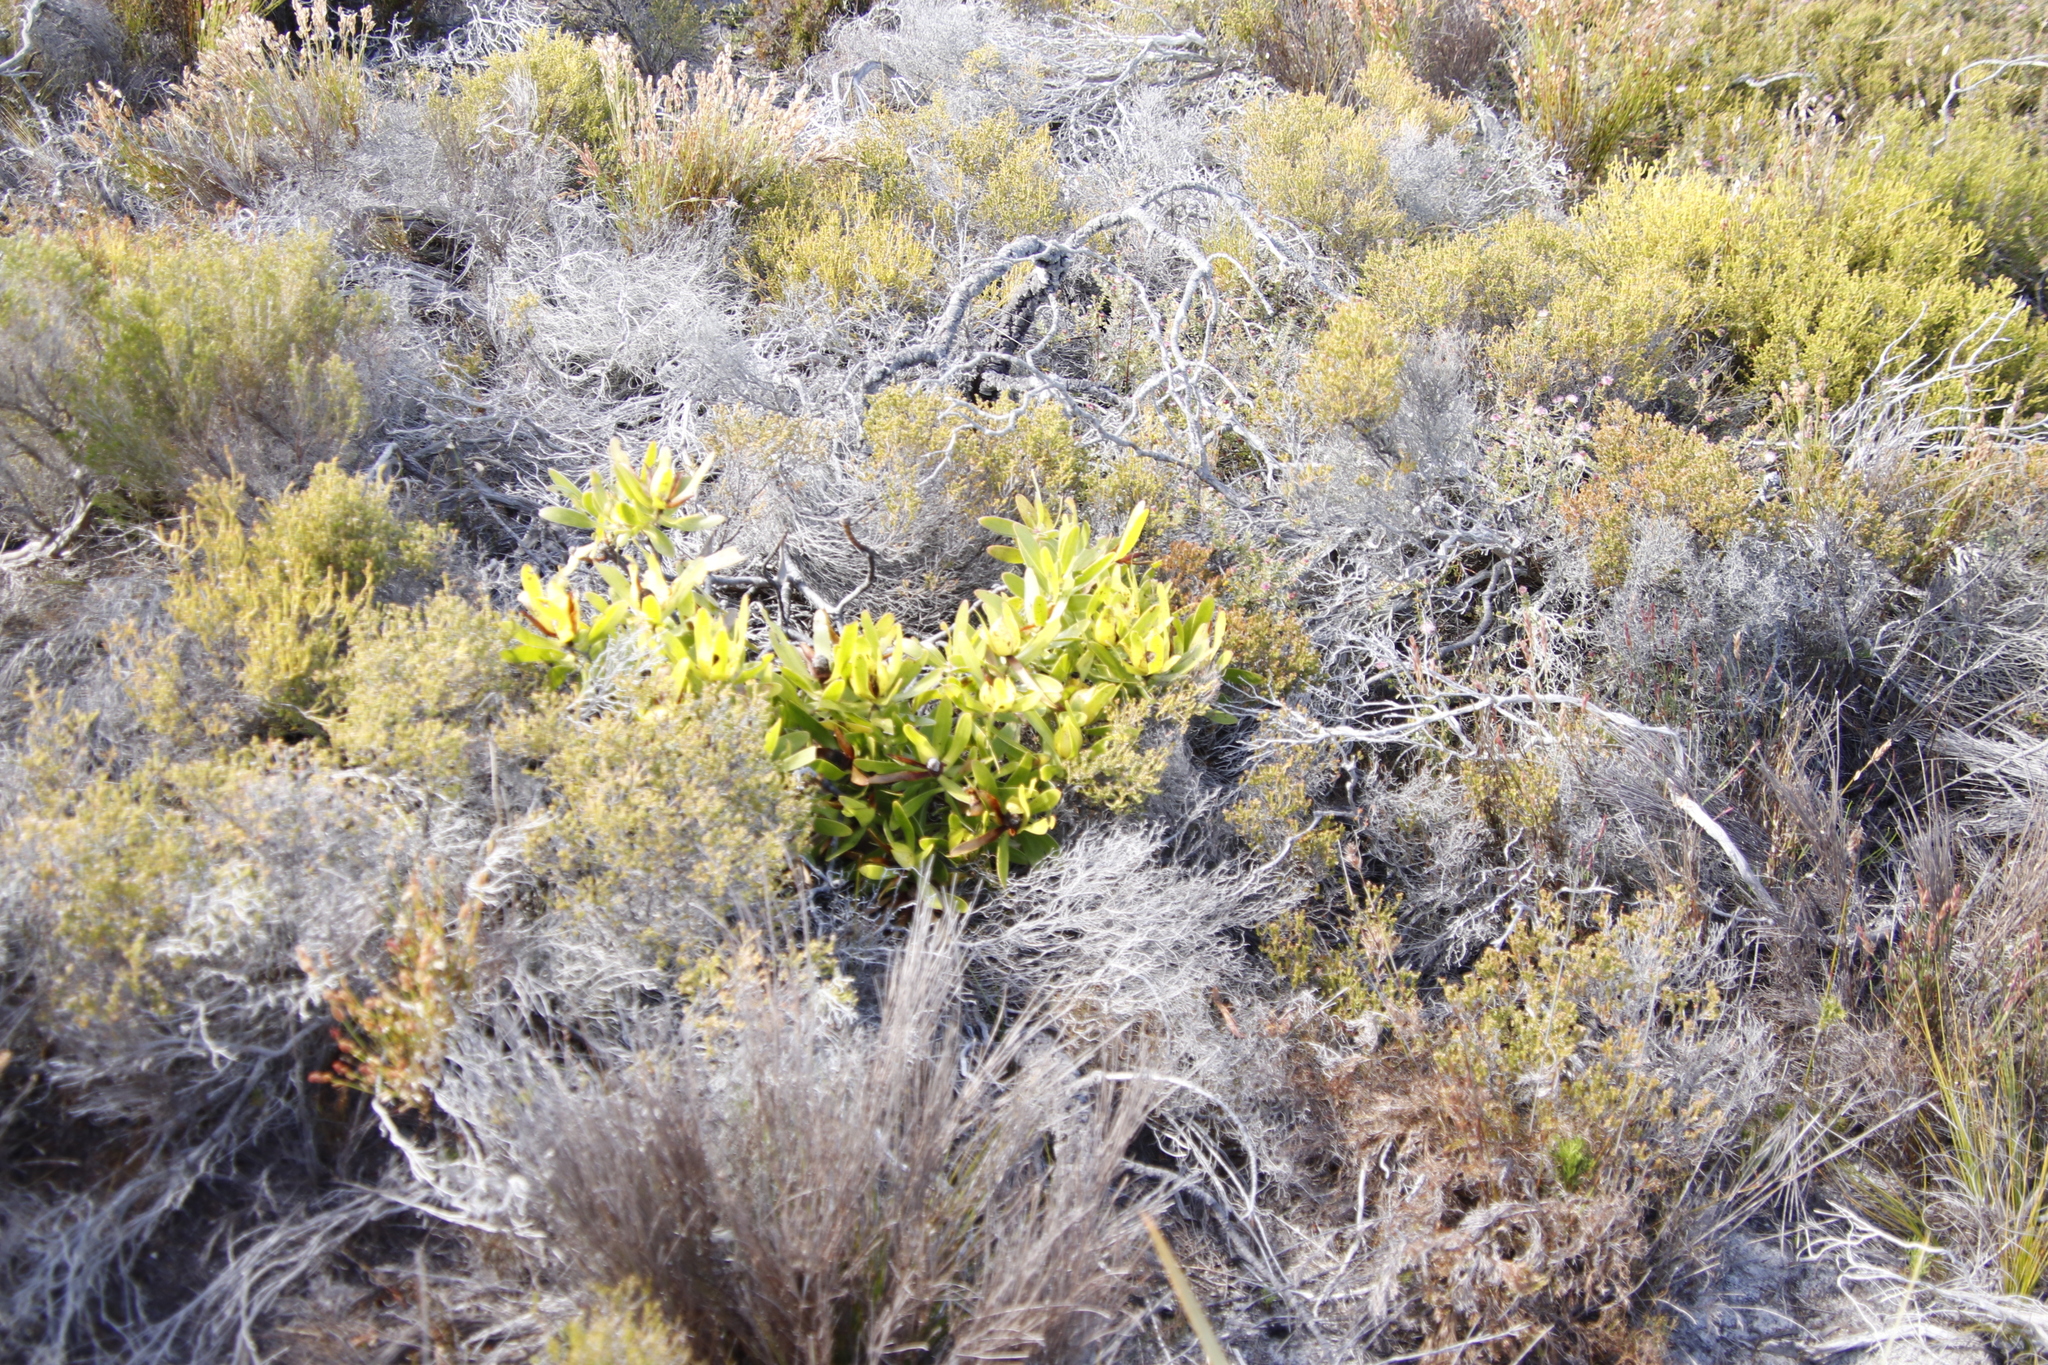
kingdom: Plantae
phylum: Tracheophyta
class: Magnoliopsida
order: Proteales
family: Proteaceae
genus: Leucadendron
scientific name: Leucadendron laureolum
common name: Golden sunshinebush
